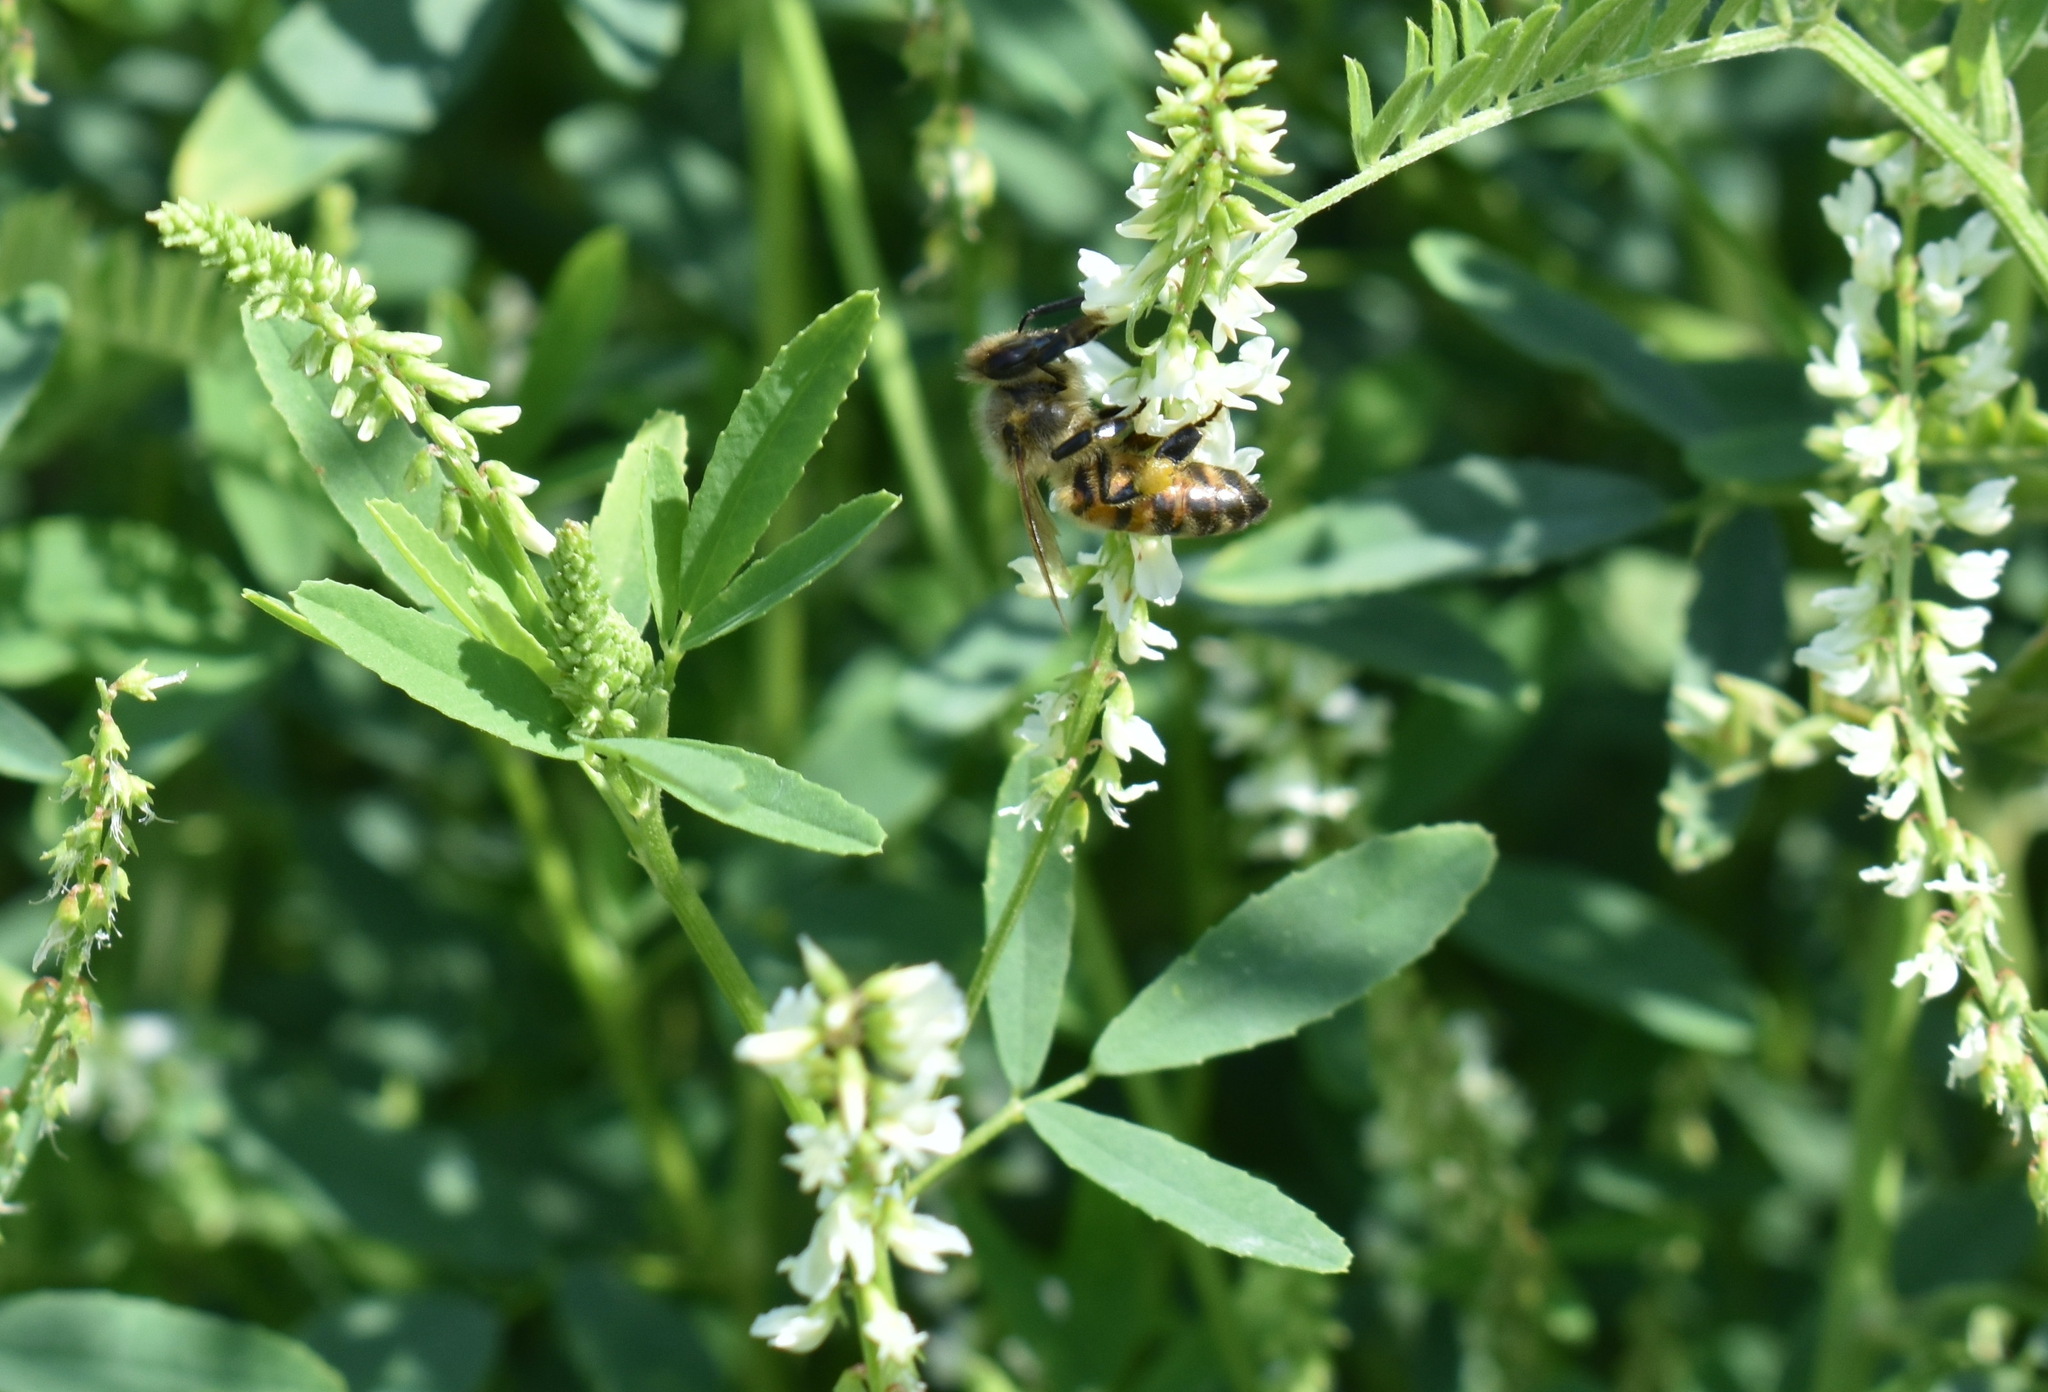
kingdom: Animalia
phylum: Arthropoda
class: Insecta
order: Hymenoptera
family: Apidae
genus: Apis
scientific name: Apis mellifera
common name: Honey bee
